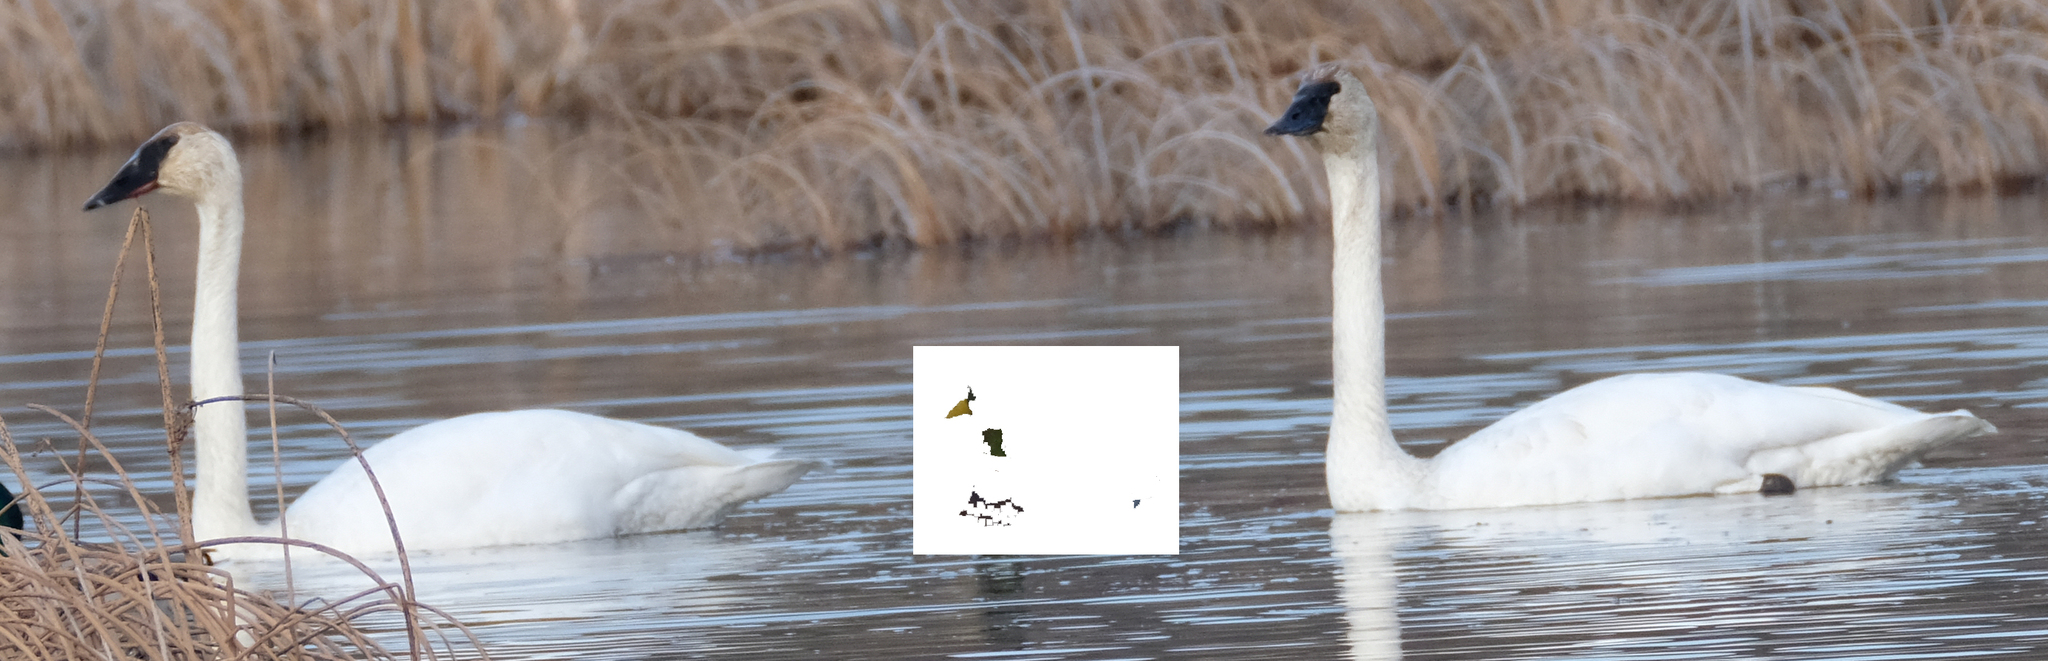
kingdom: Animalia
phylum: Chordata
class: Aves
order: Anseriformes
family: Anatidae
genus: Cygnus
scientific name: Cygnus buccinator
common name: Trumpeter swan
